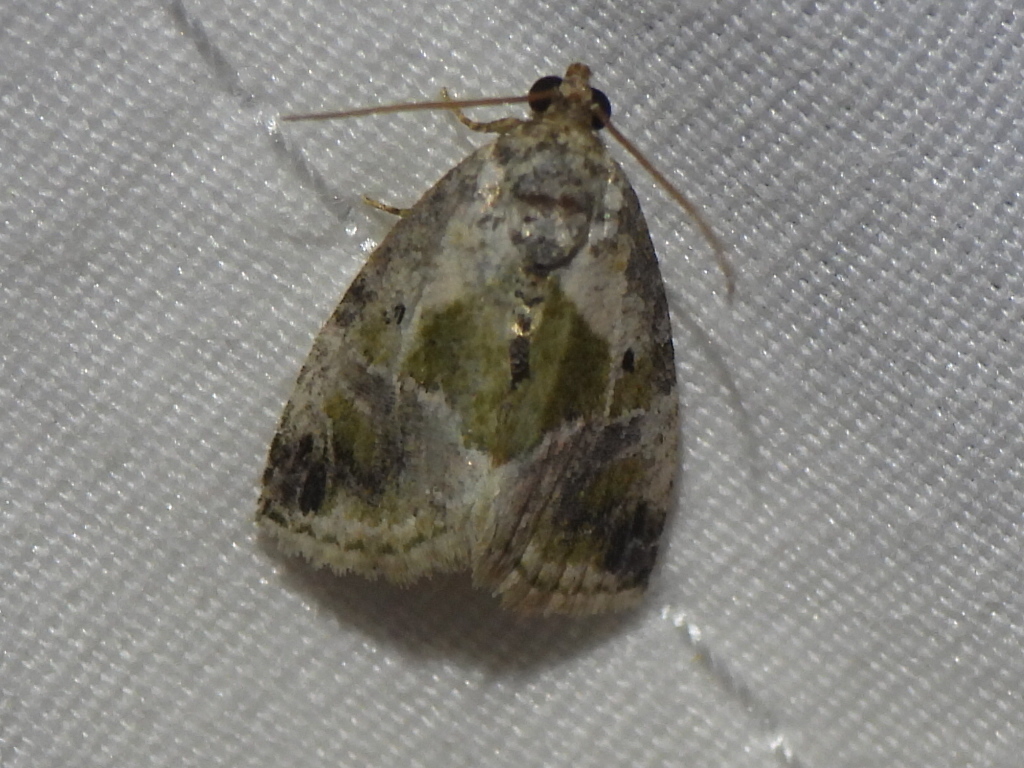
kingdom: Animalia
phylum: Arthropoda
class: Insecta
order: Lepidoptera
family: Noctuidae
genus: Maliattha
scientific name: Maliattha synochitis
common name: Black-dotted glyph
